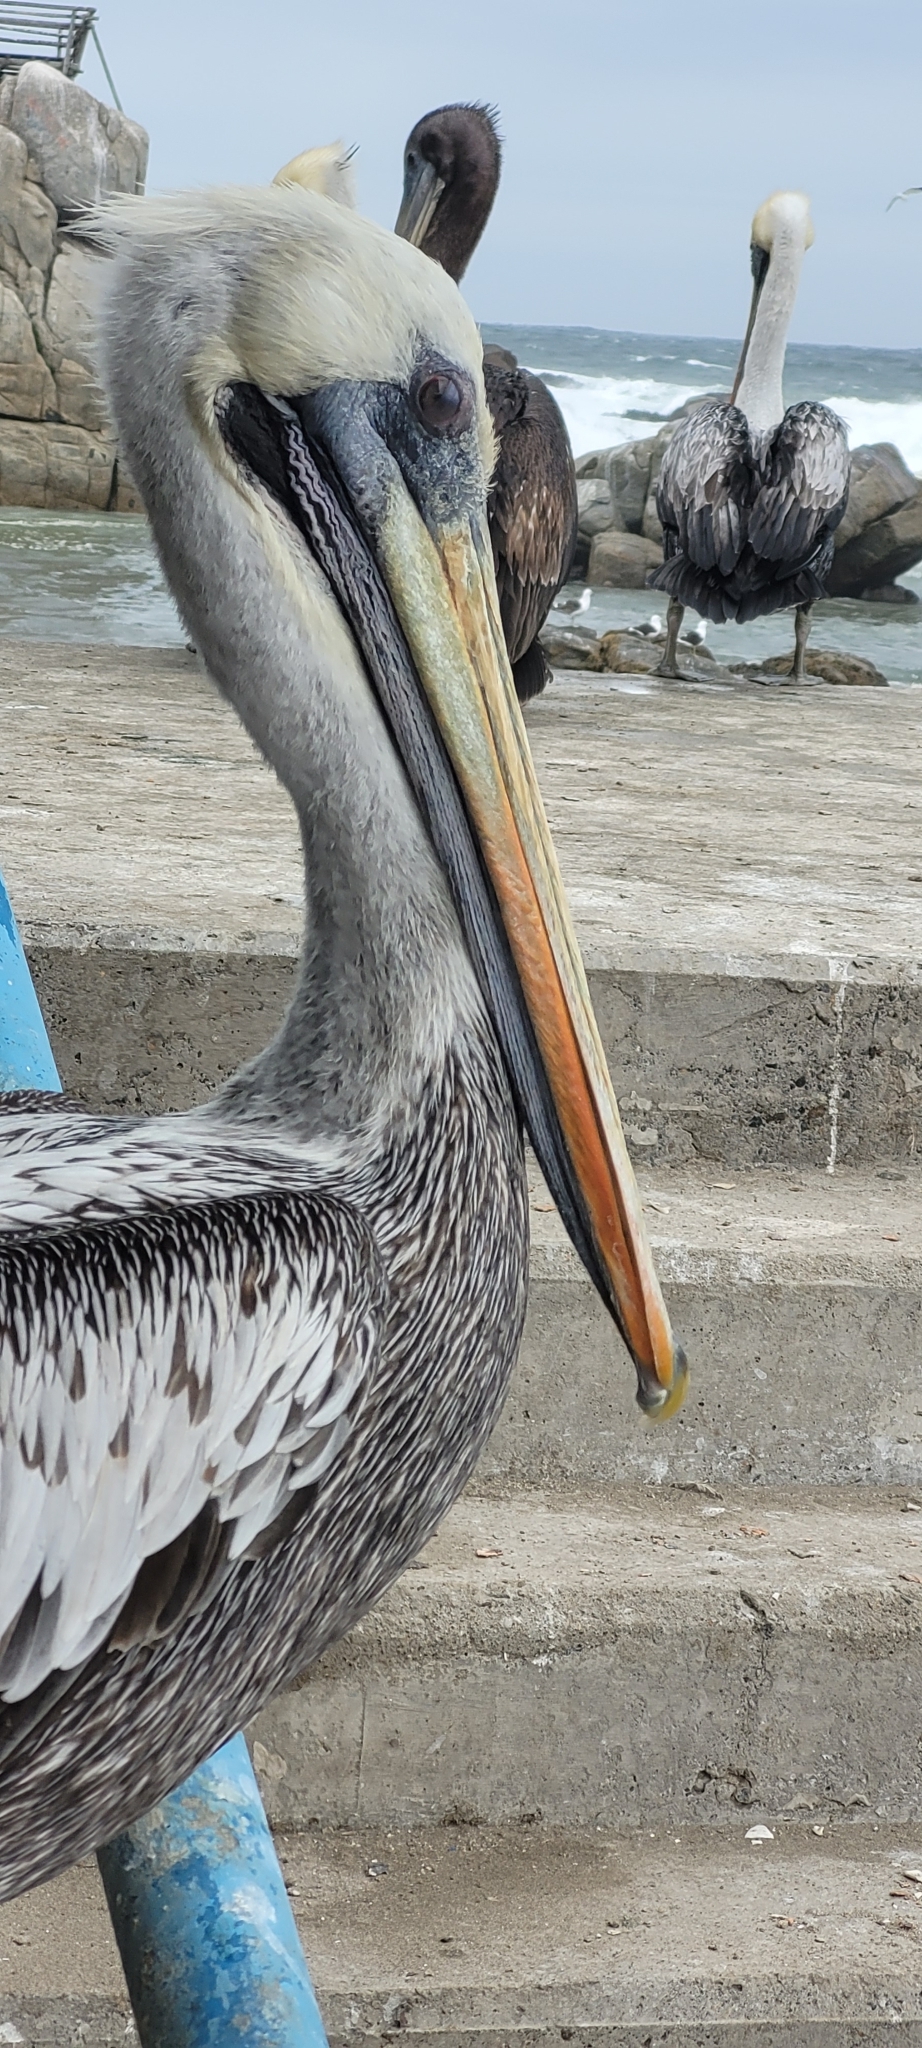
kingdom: Animalia
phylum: Chordata
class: Aves
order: Pelecaniformes
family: Pelecanidae
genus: Pelecanus
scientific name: Pelecanus thagus
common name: Peruvian pelican
